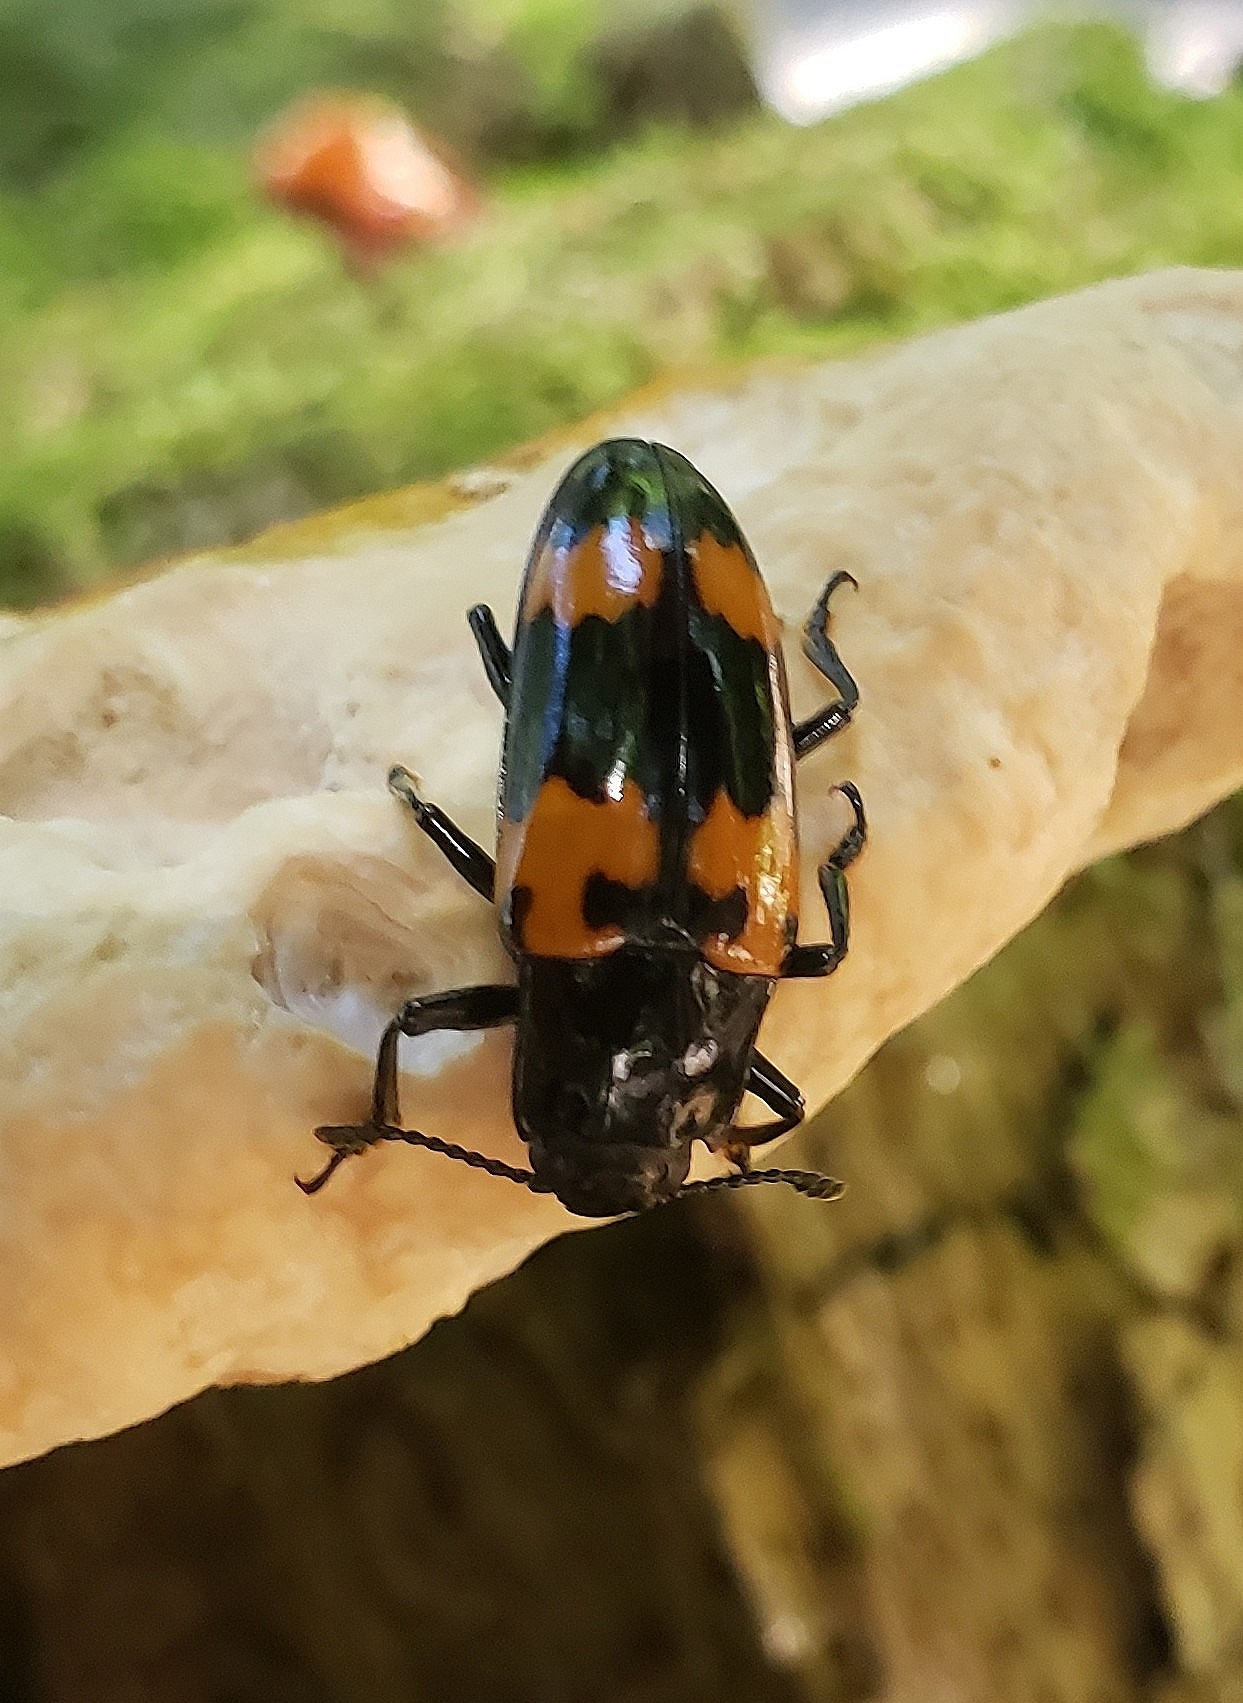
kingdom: Animalia
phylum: Arthropoda
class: Insecta
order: Coleoptera
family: Erotylidae
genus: Megalodacne
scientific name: Megalodacne heros
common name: Pleasing fungus beetle
